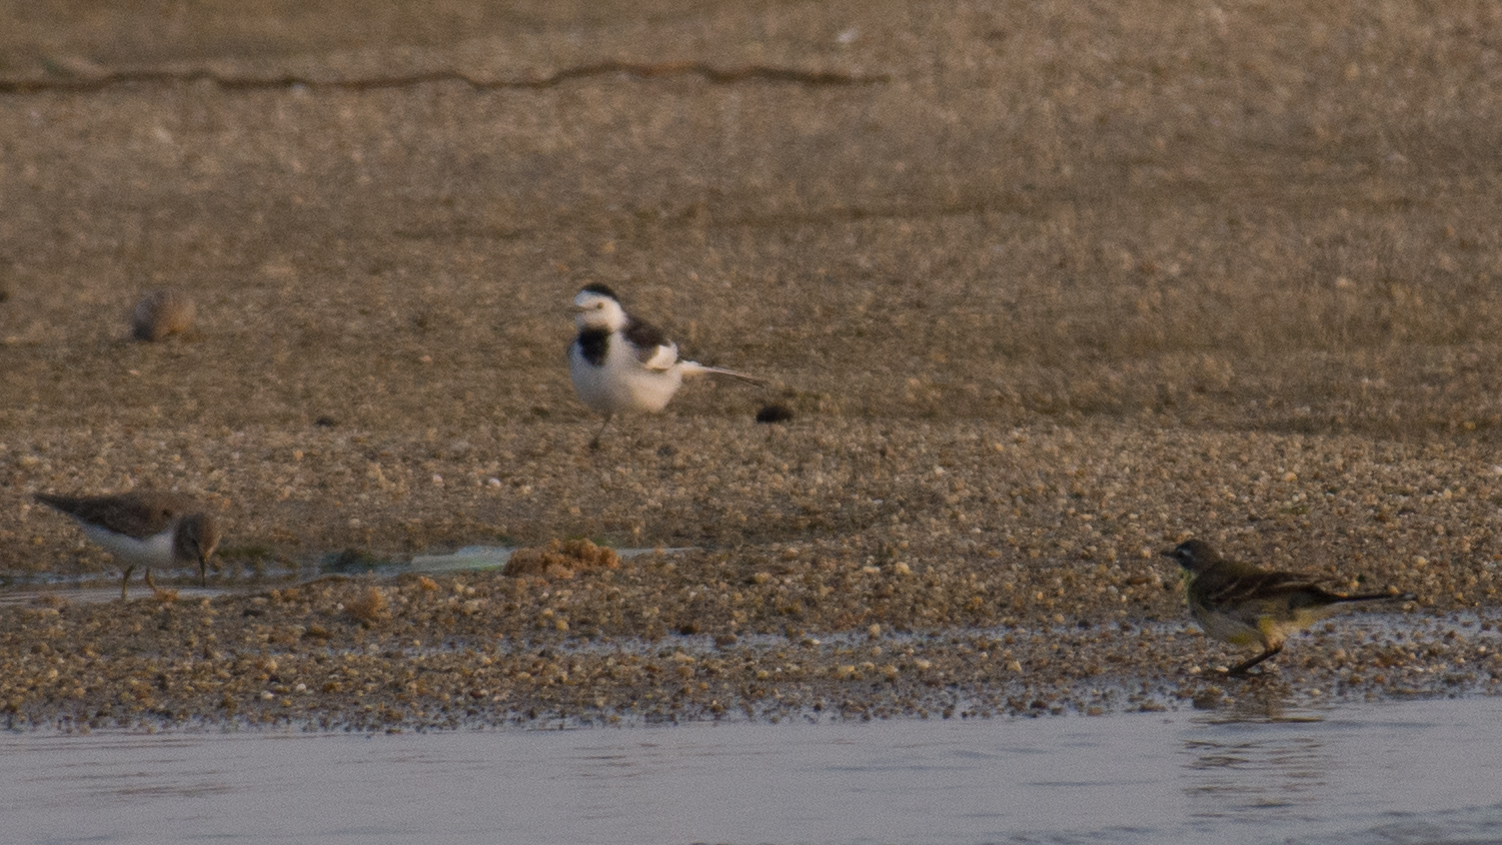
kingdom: Animalia
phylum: Chordata
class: Aves
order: Passeriformes
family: Motacillidae
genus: Motacilla
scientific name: Motacilla alba
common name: White wagtail
